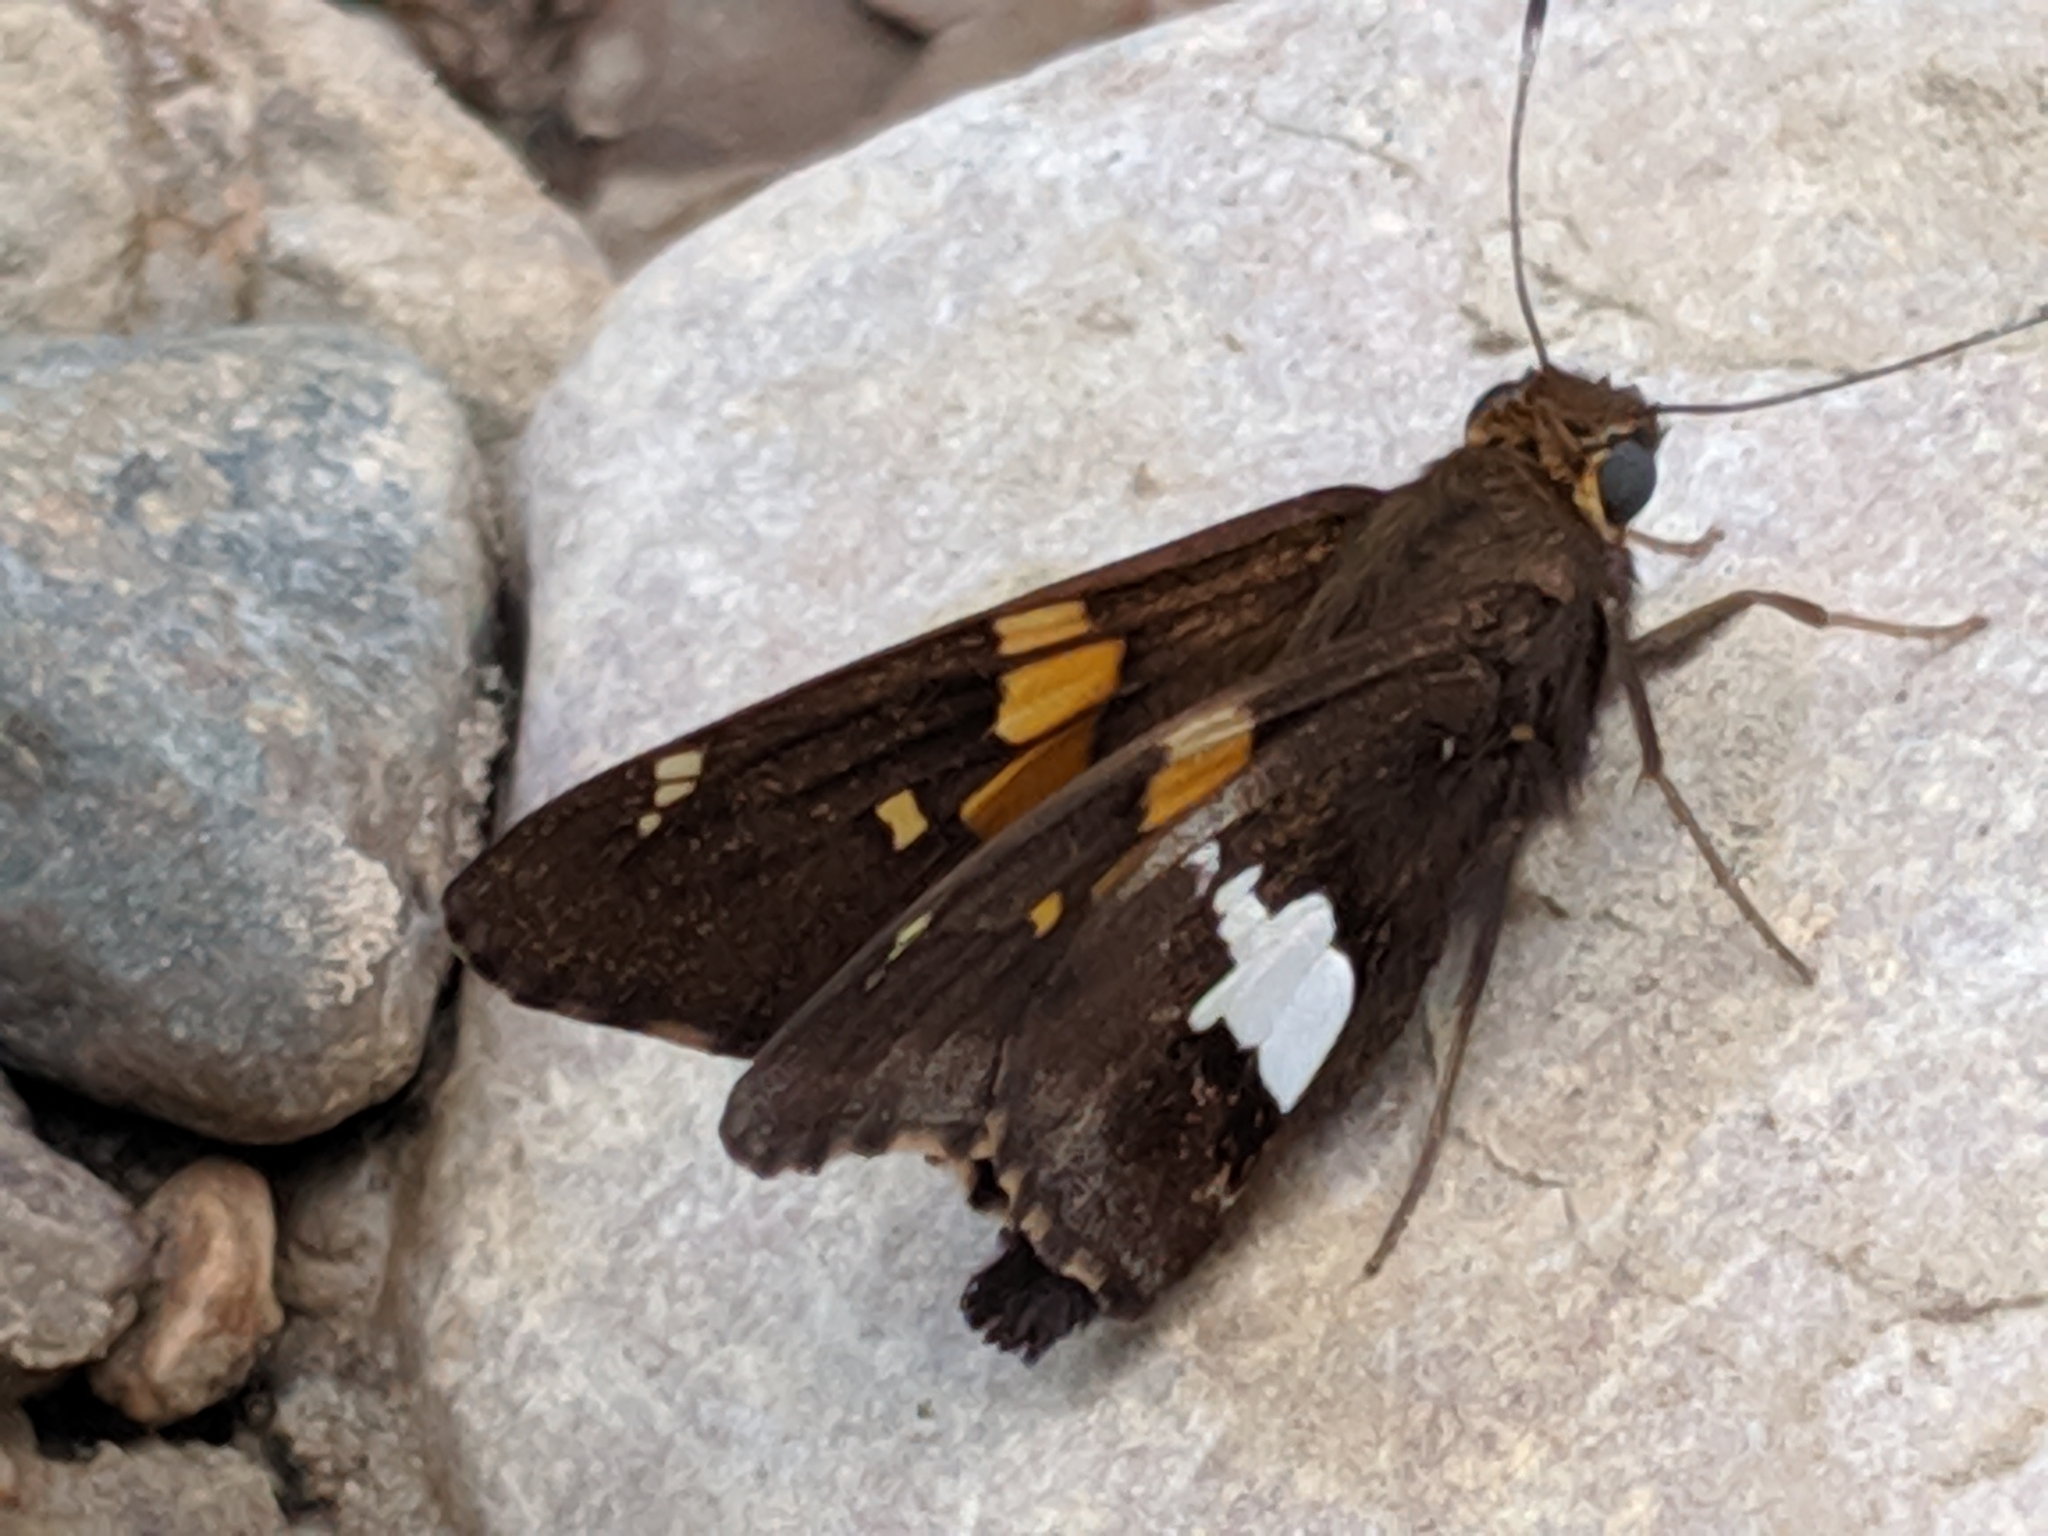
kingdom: Animalia
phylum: Arthropoda
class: Insecta
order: Lepidoptera
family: Hesperiidae
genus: Epargyreus
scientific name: Epargyreus clarus
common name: Silver-spotted skipper
